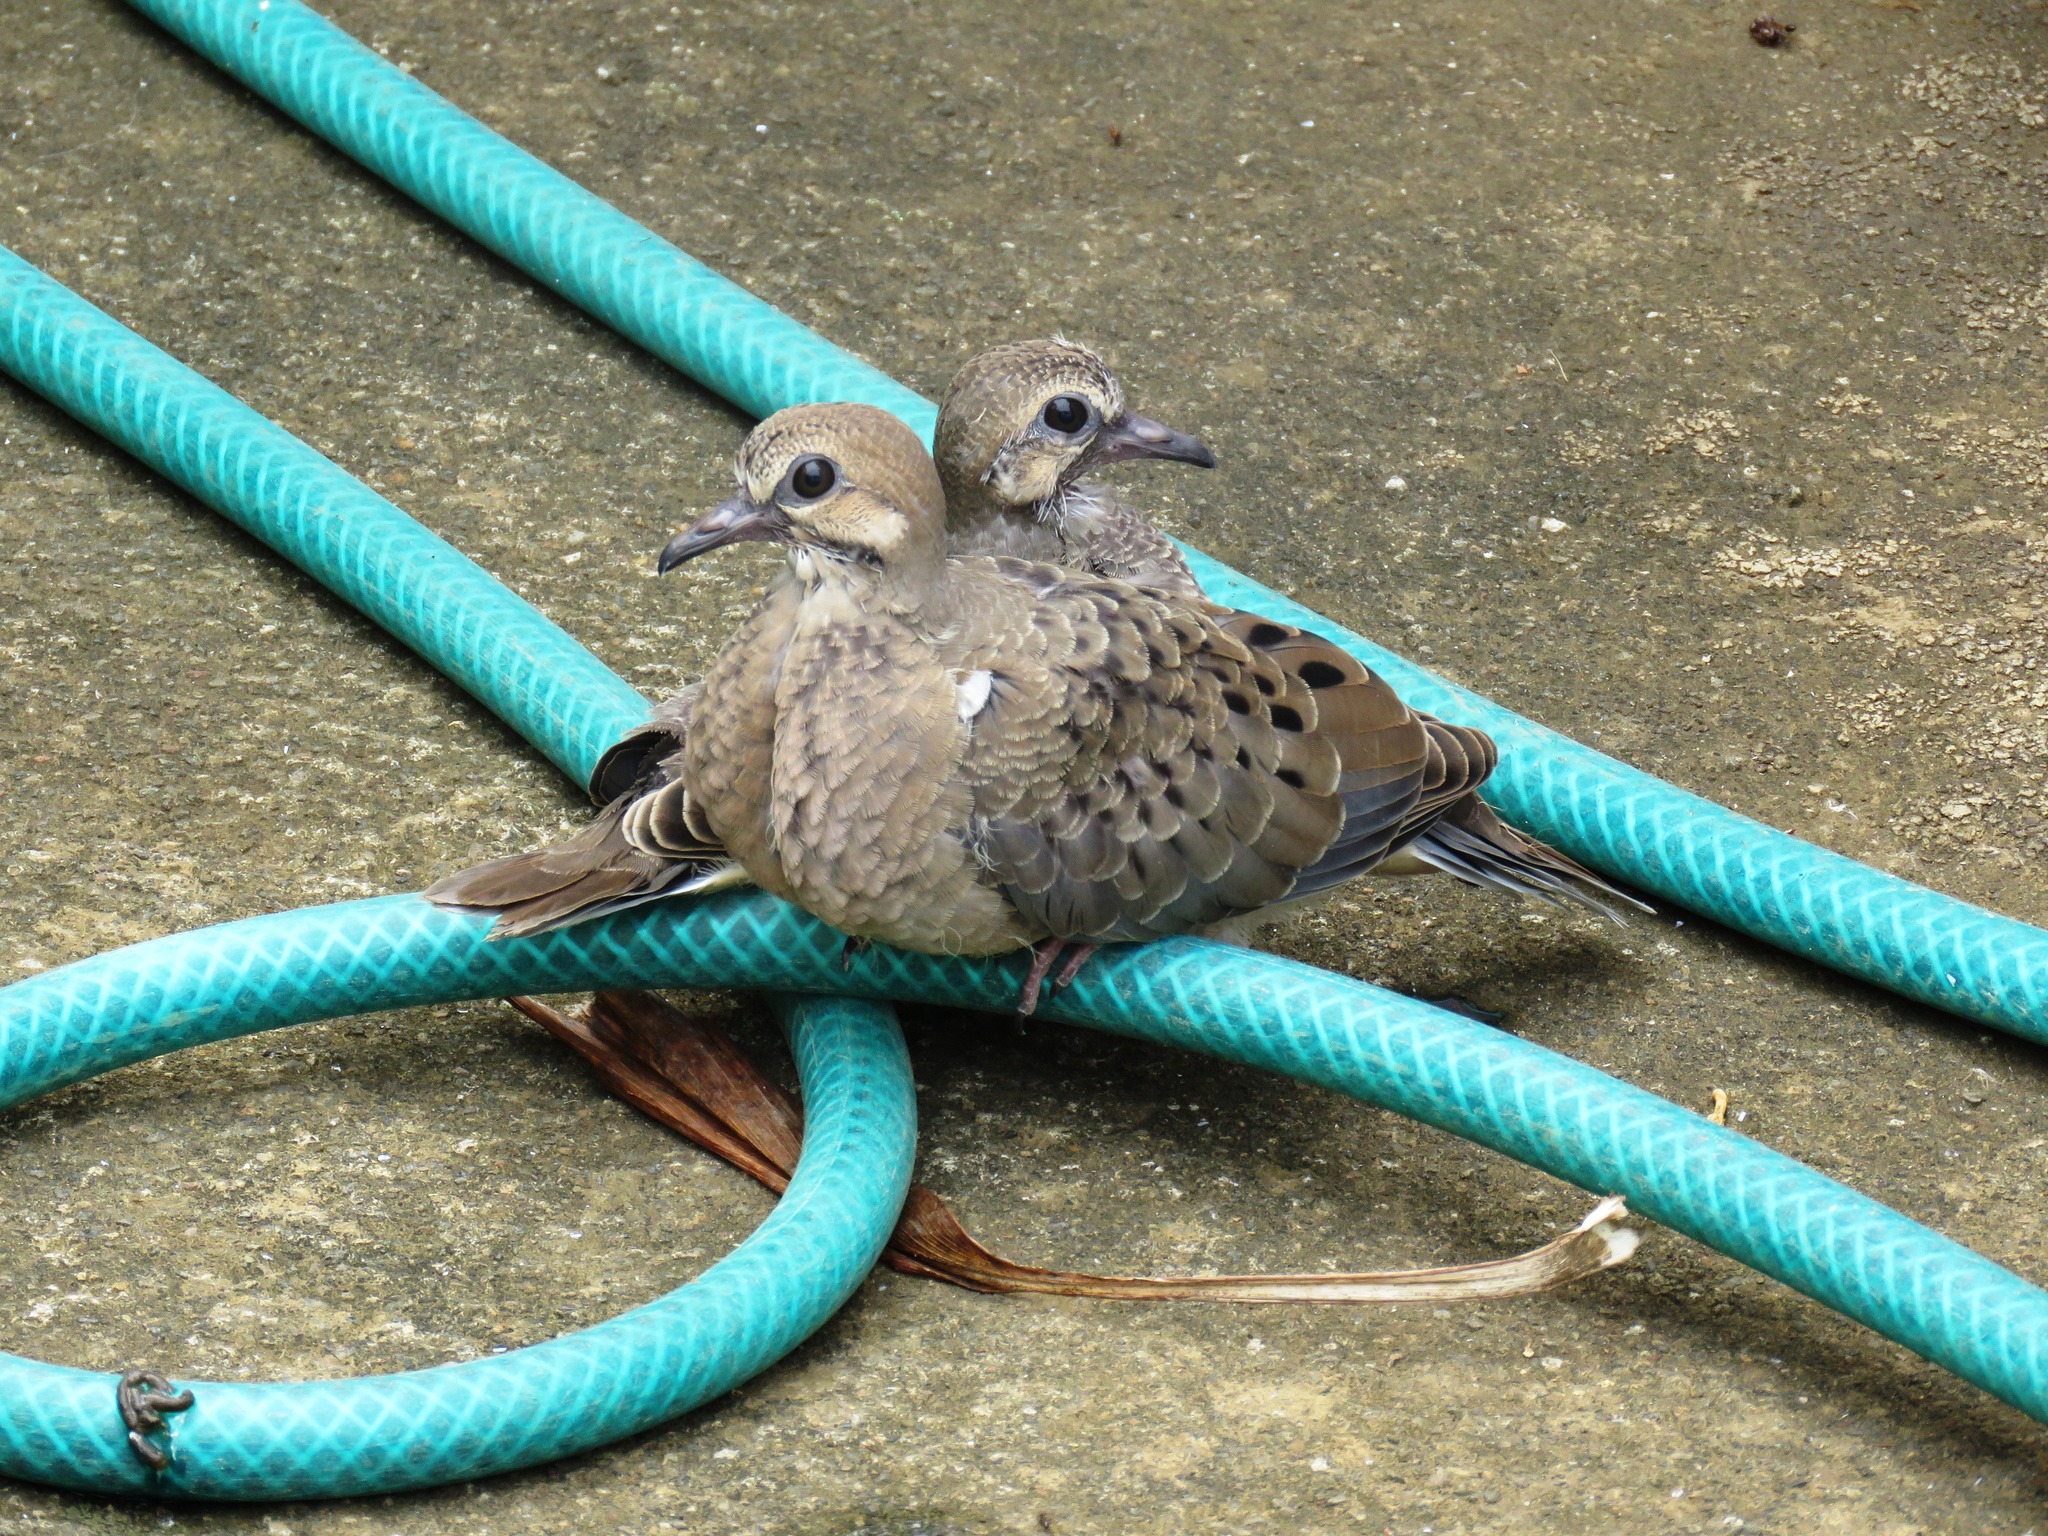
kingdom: Animalia
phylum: Chordata
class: Aves
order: Columbiformes
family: Columbidae
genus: Zenaida
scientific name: Zenaida macroura
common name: Mourning dove
